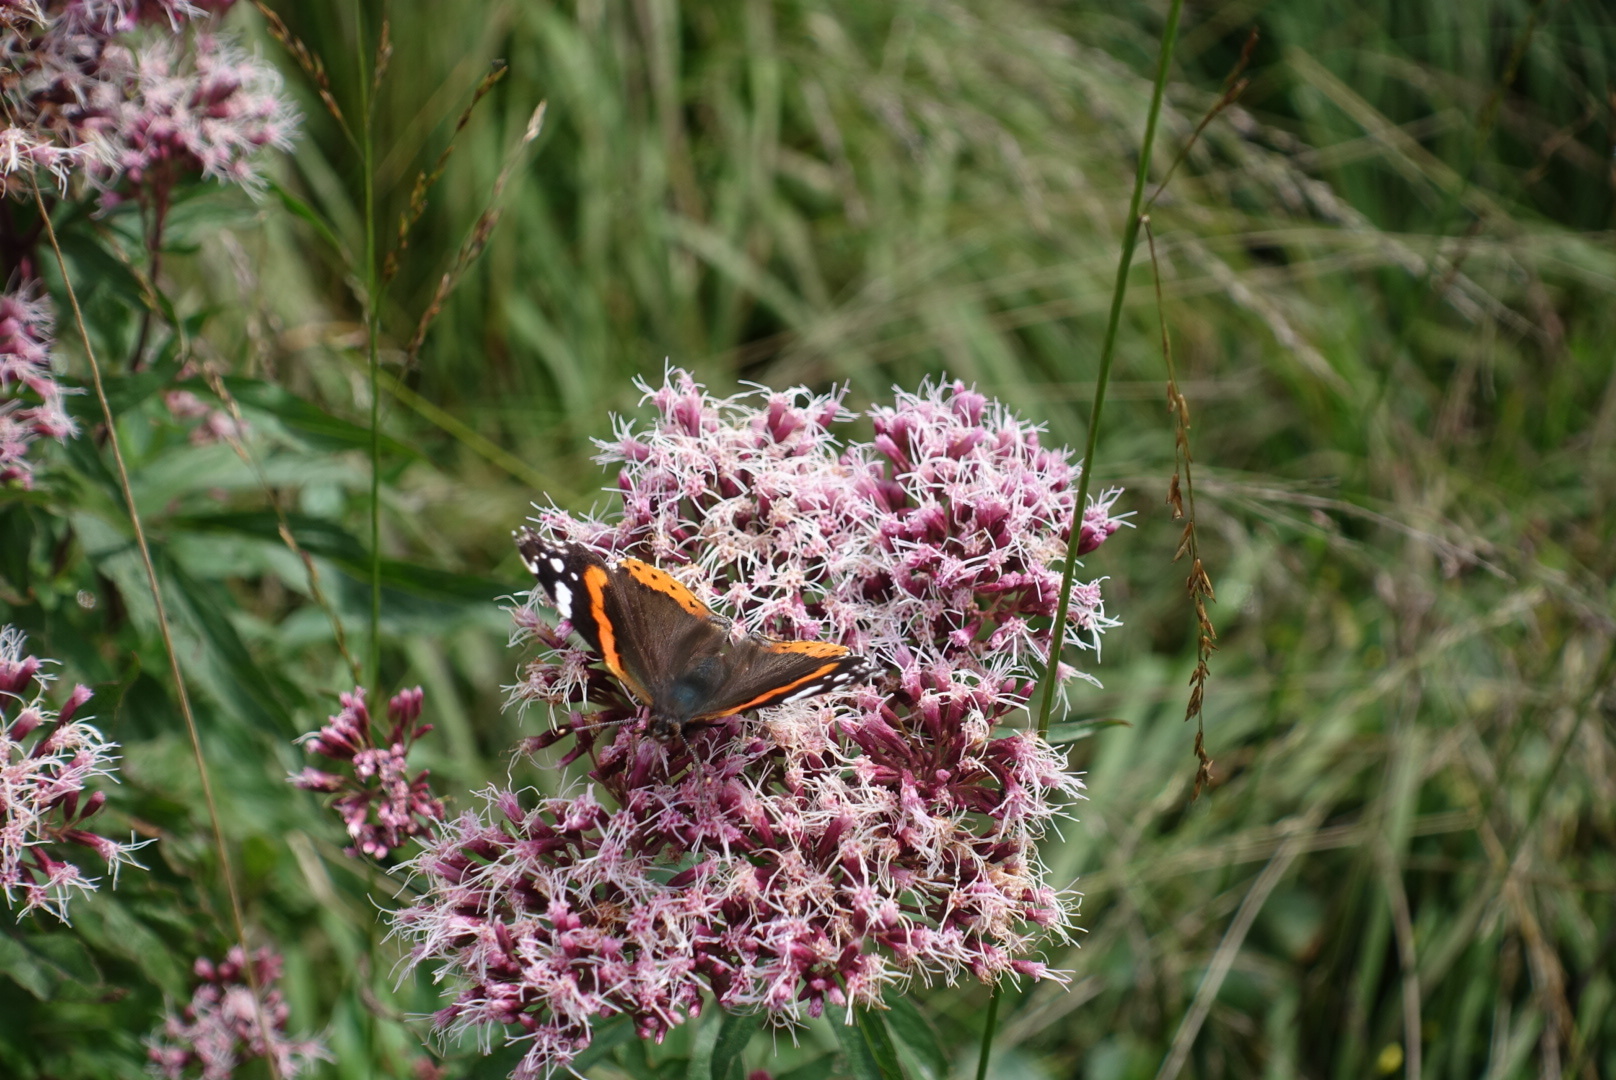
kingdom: Animalia
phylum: Arthropoda
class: Insecta
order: Lepidoptera
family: Nymphalidae
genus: Vanessa
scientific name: Vanessa atalanta
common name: Red admiral
